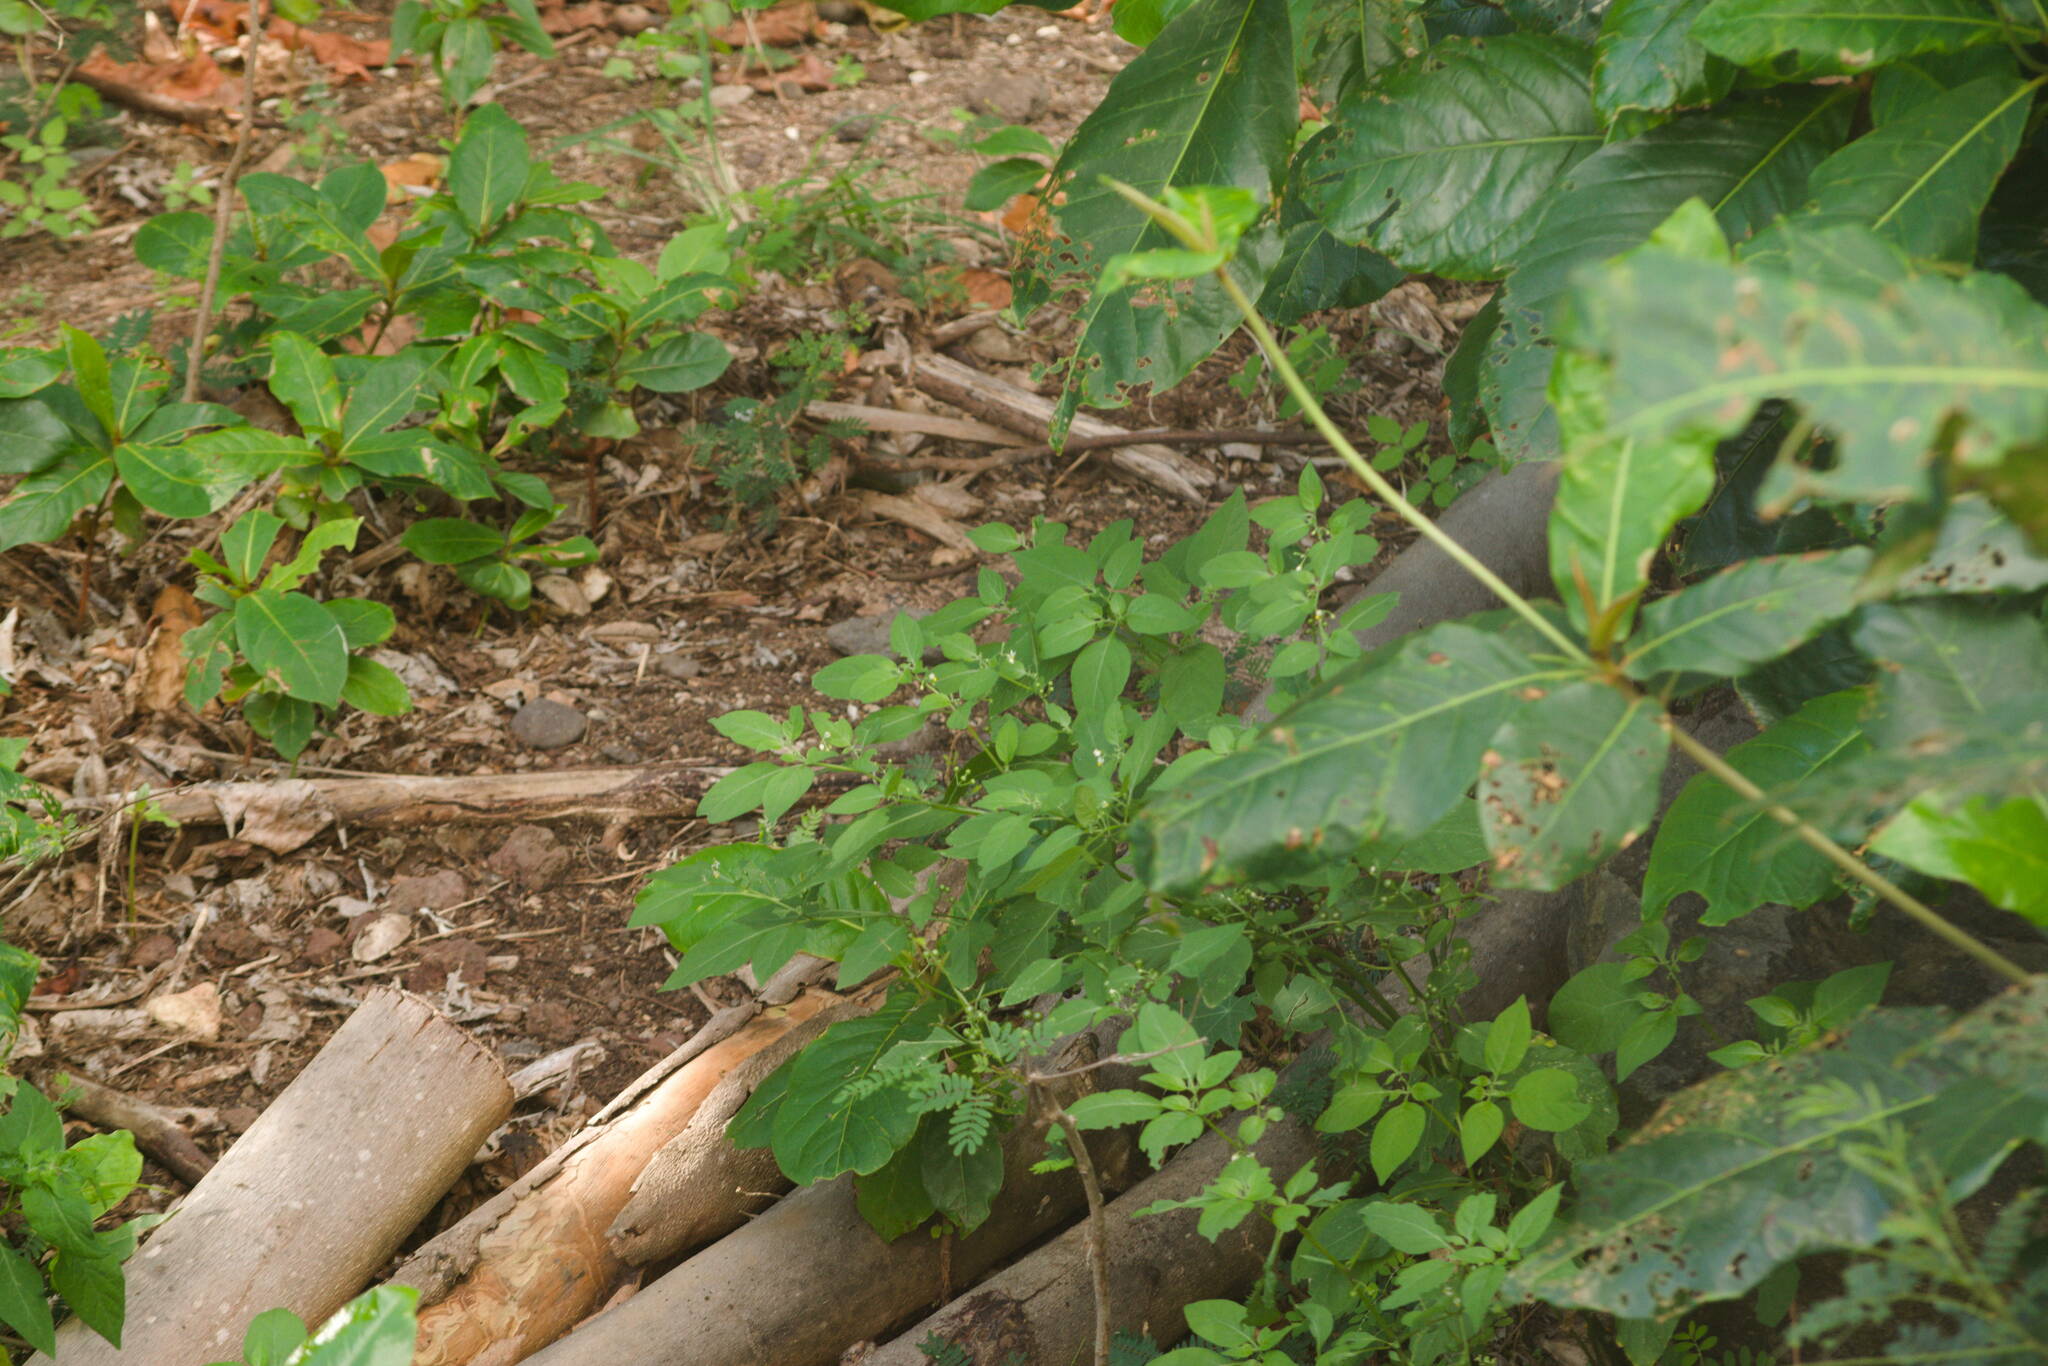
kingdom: Plantae
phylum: Tracheophyta
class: Magnoliopsida
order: Solanales
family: Solanaceae
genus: Solanum
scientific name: Solanum americanum
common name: American black nightshade
